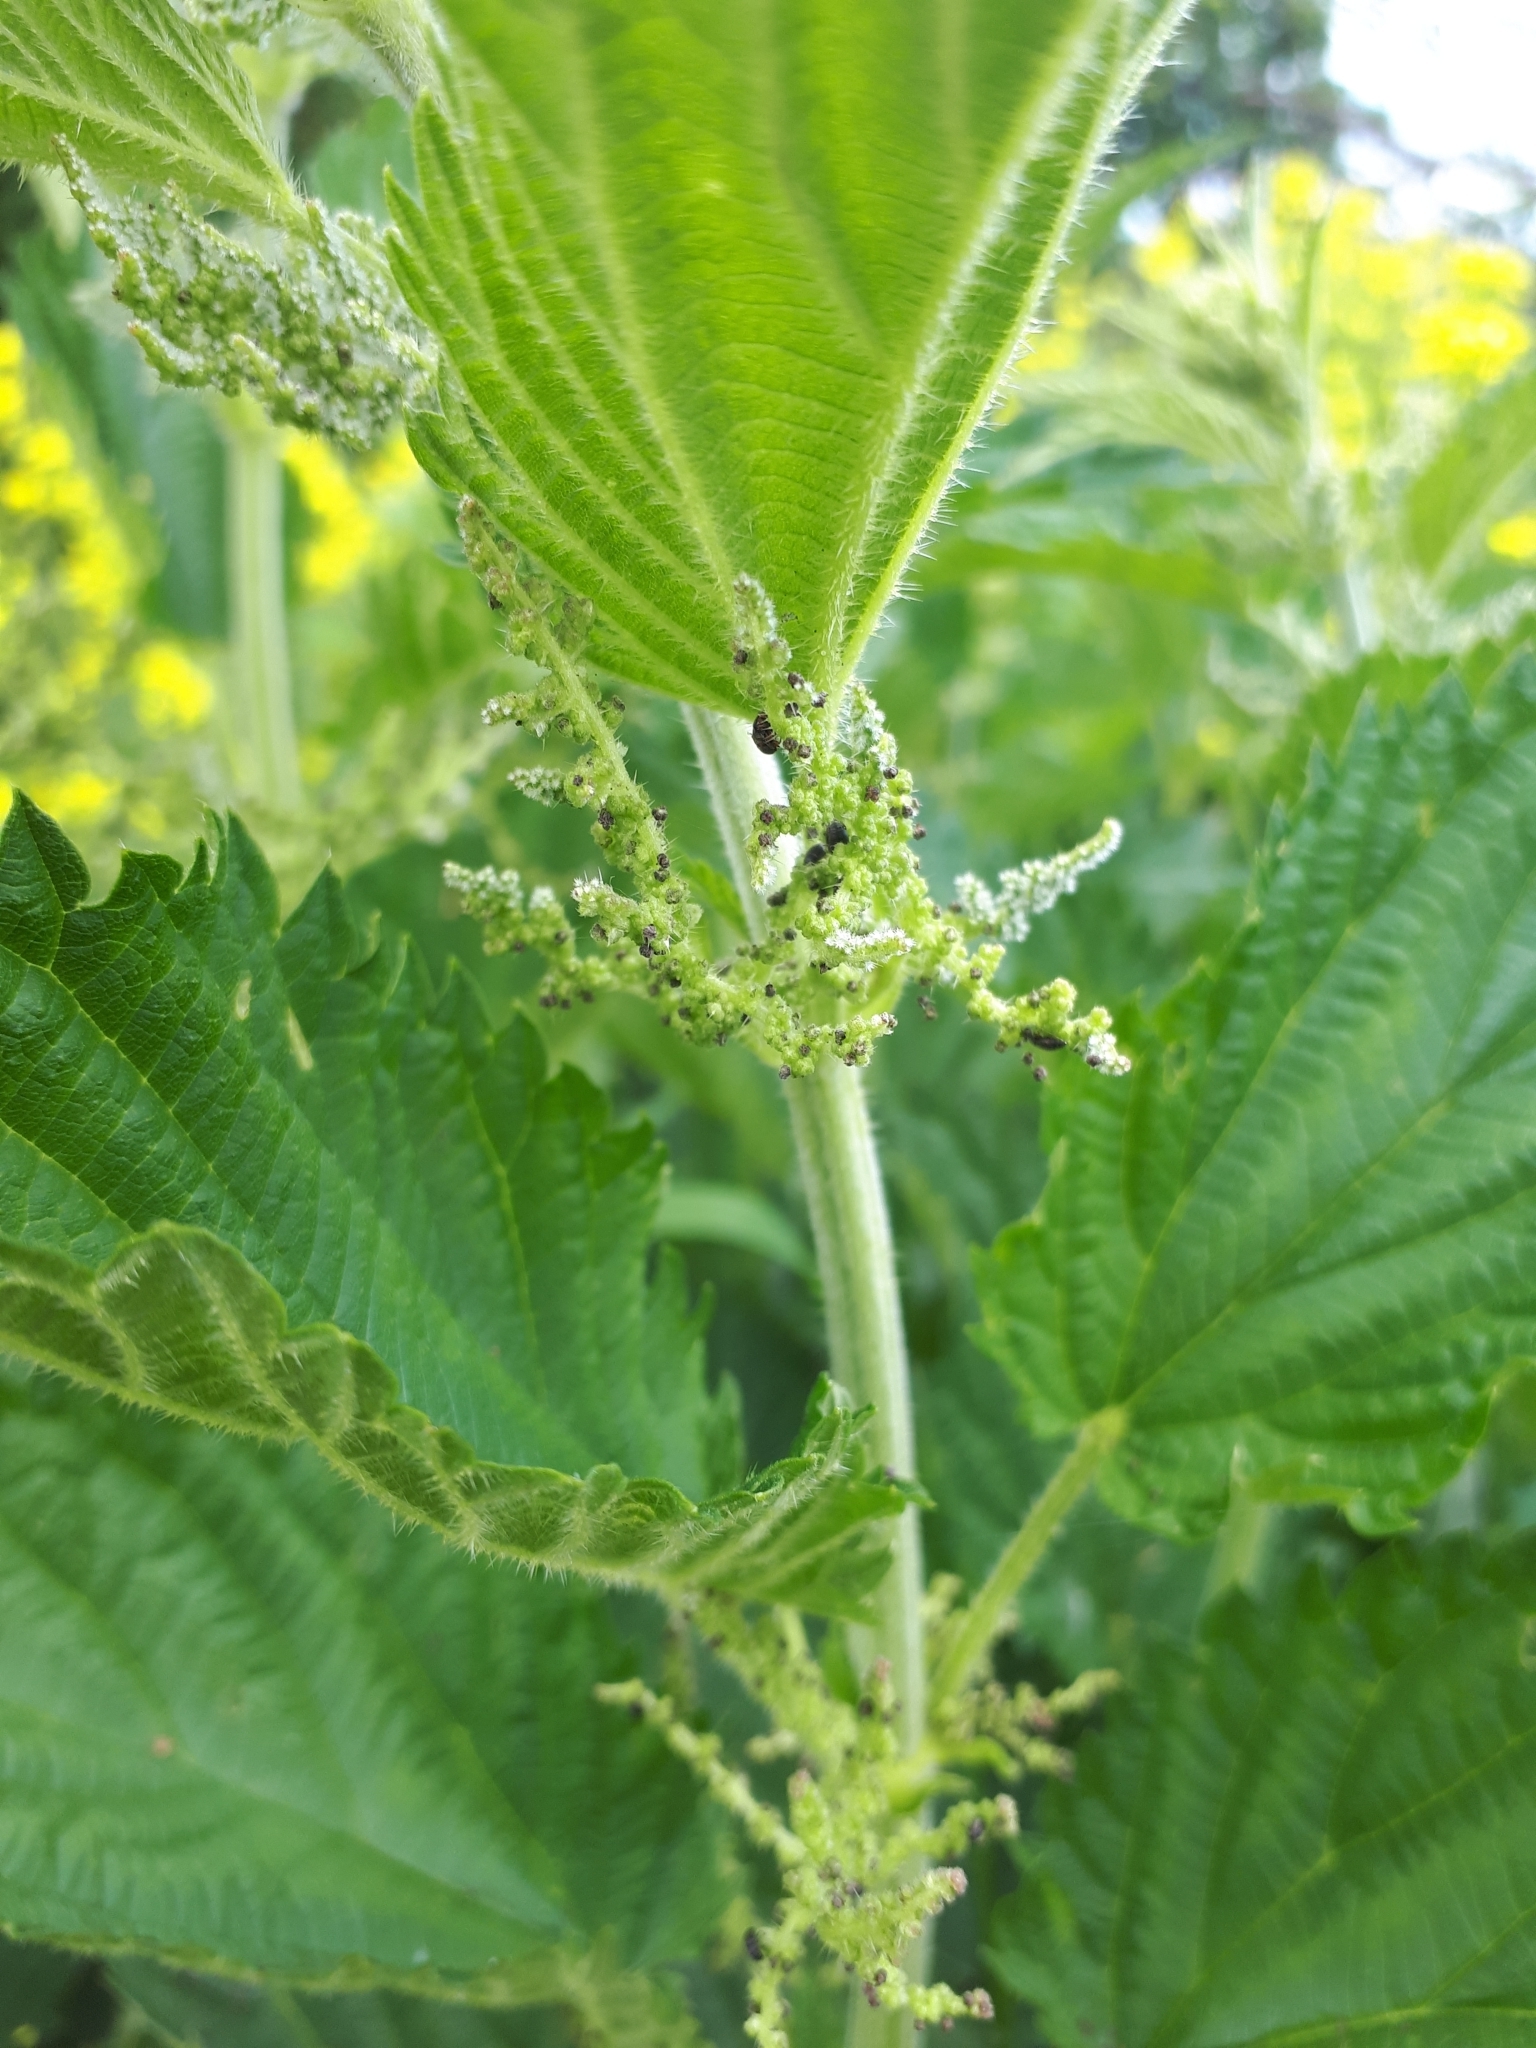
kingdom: Plantae
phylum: Tracheophyta
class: Magnoliopsida
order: Rosales
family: Urticaceae
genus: Urtica
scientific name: Urtica dioica
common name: Common nettle
